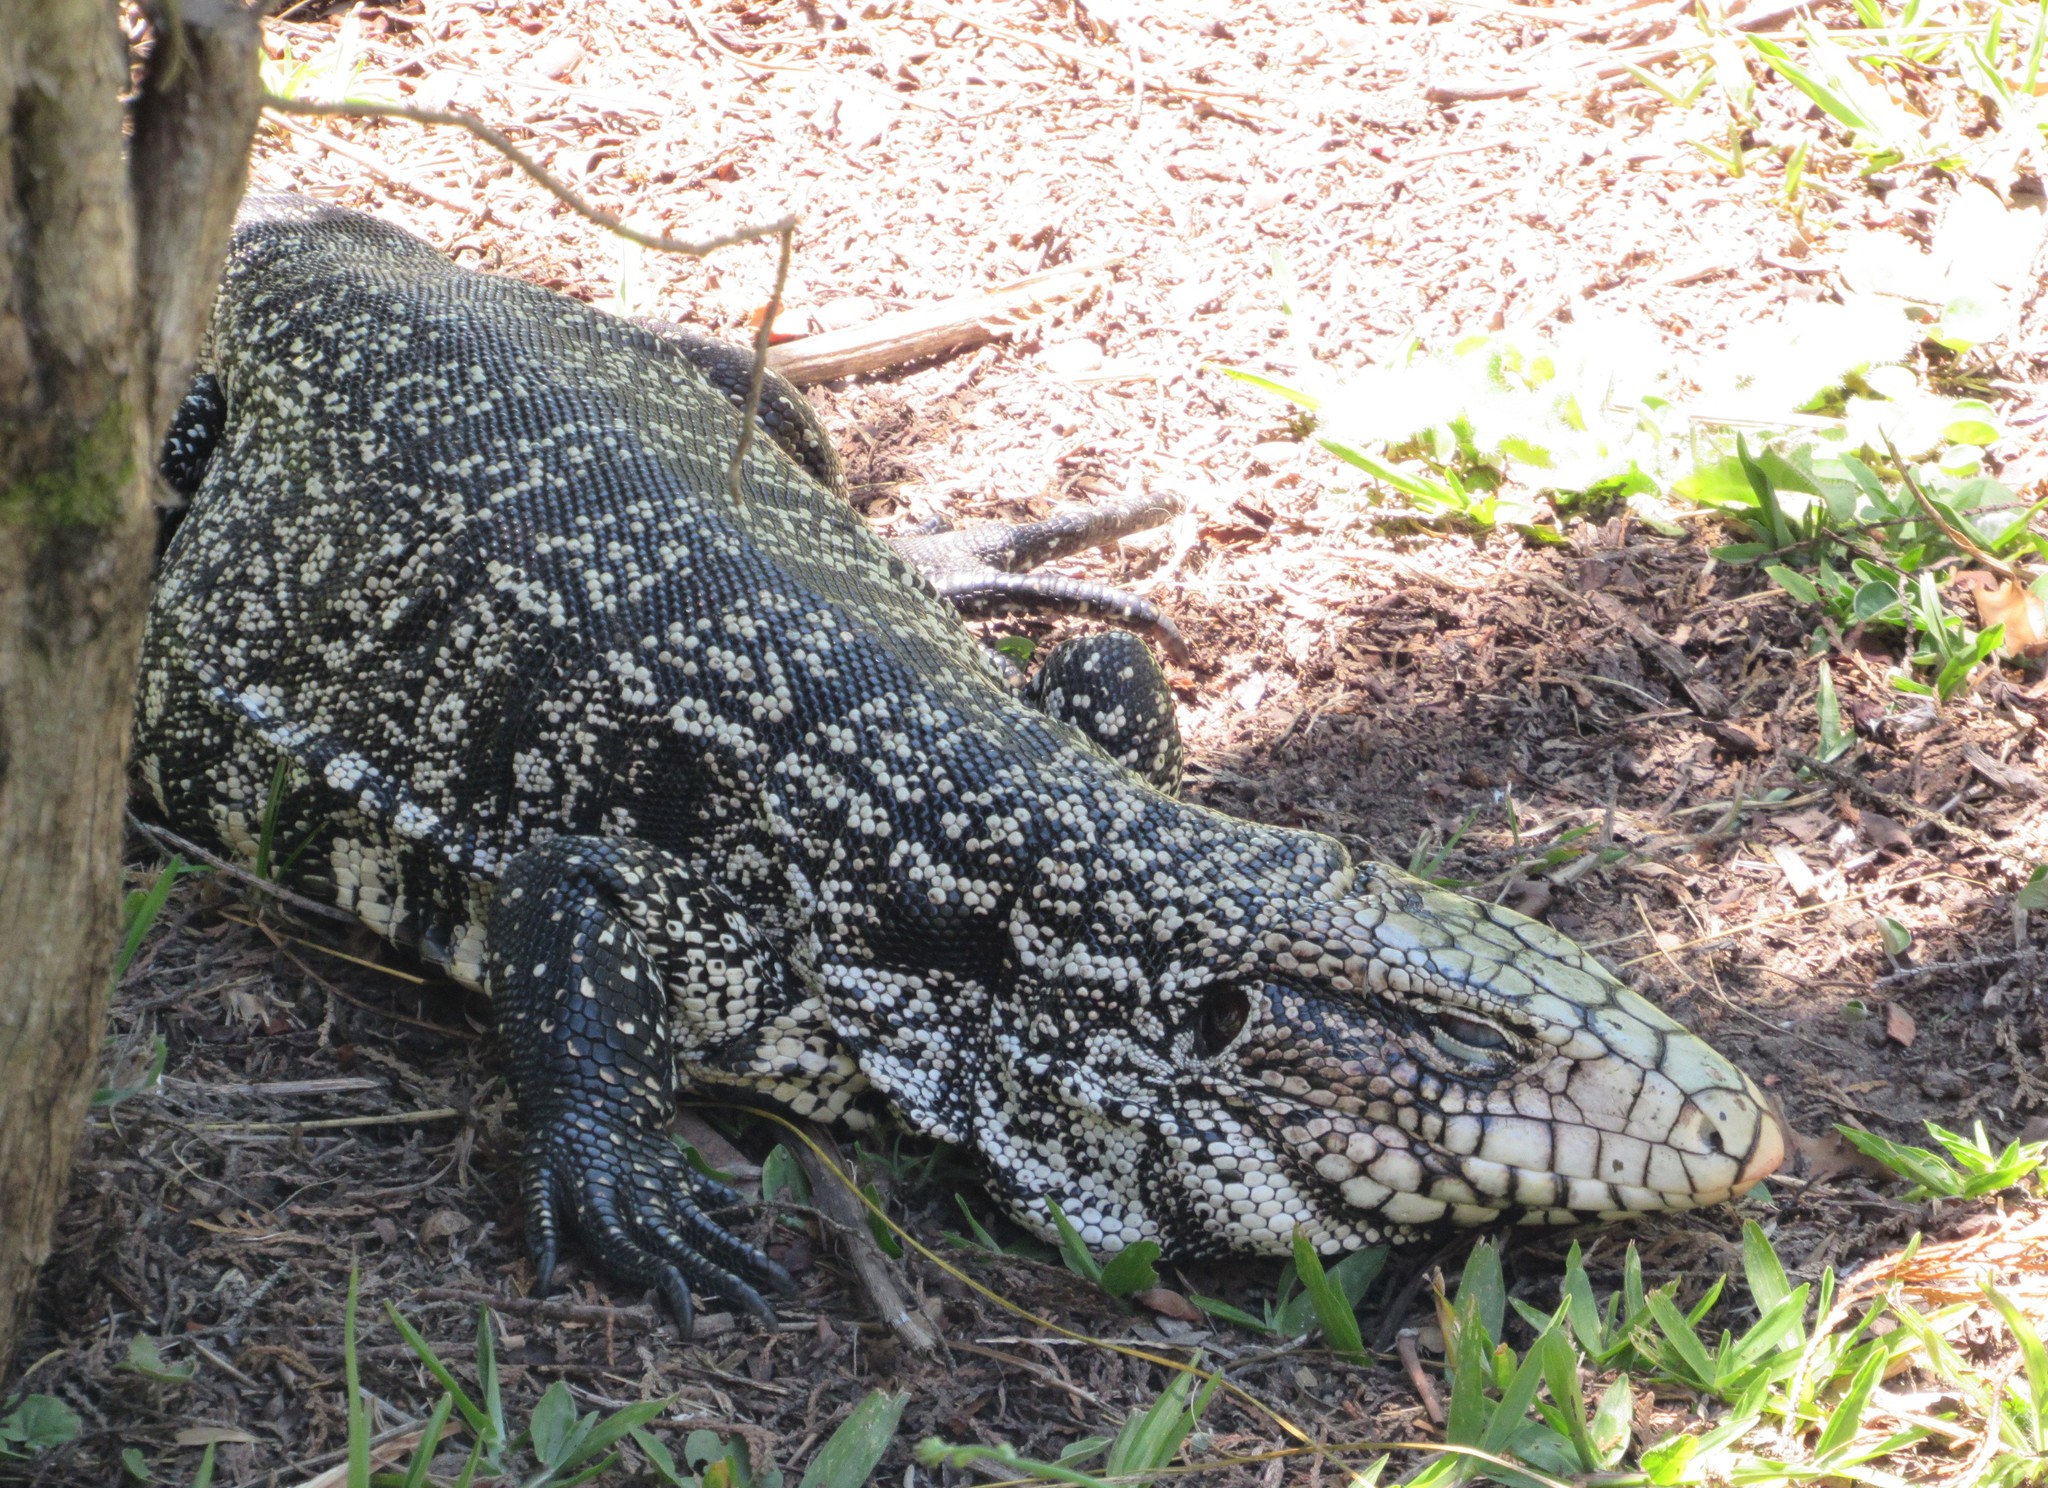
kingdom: Animalia
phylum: Chordata
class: Squamata
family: Teiidae
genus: Salvator
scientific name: Salvator merianae
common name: Argentine black and white tegu
